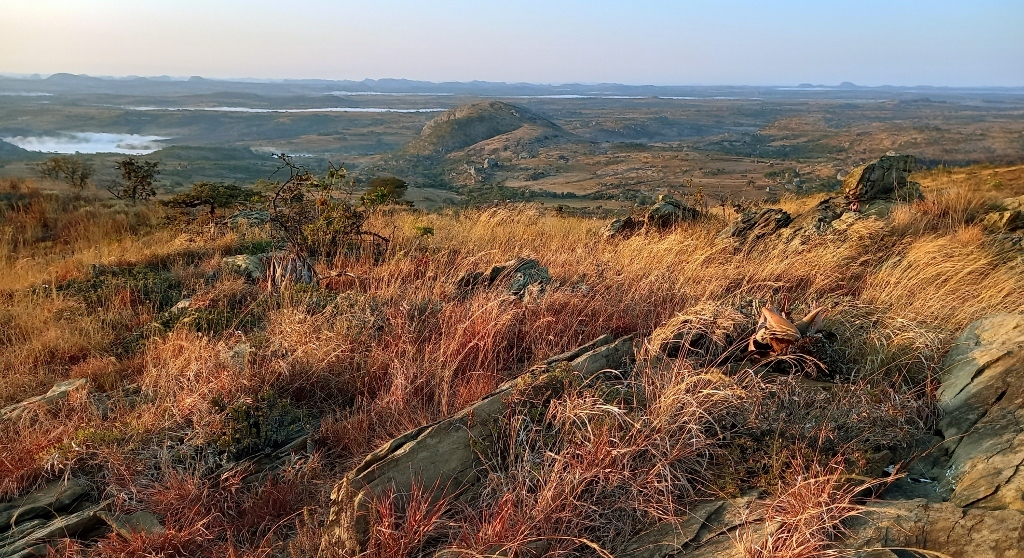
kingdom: Plantae
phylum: Tracheophyta
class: Liliopsida
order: Asparagales
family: Amaryllidaceae
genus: Cyrtanthus
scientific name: Cyrtanthus galpinii
